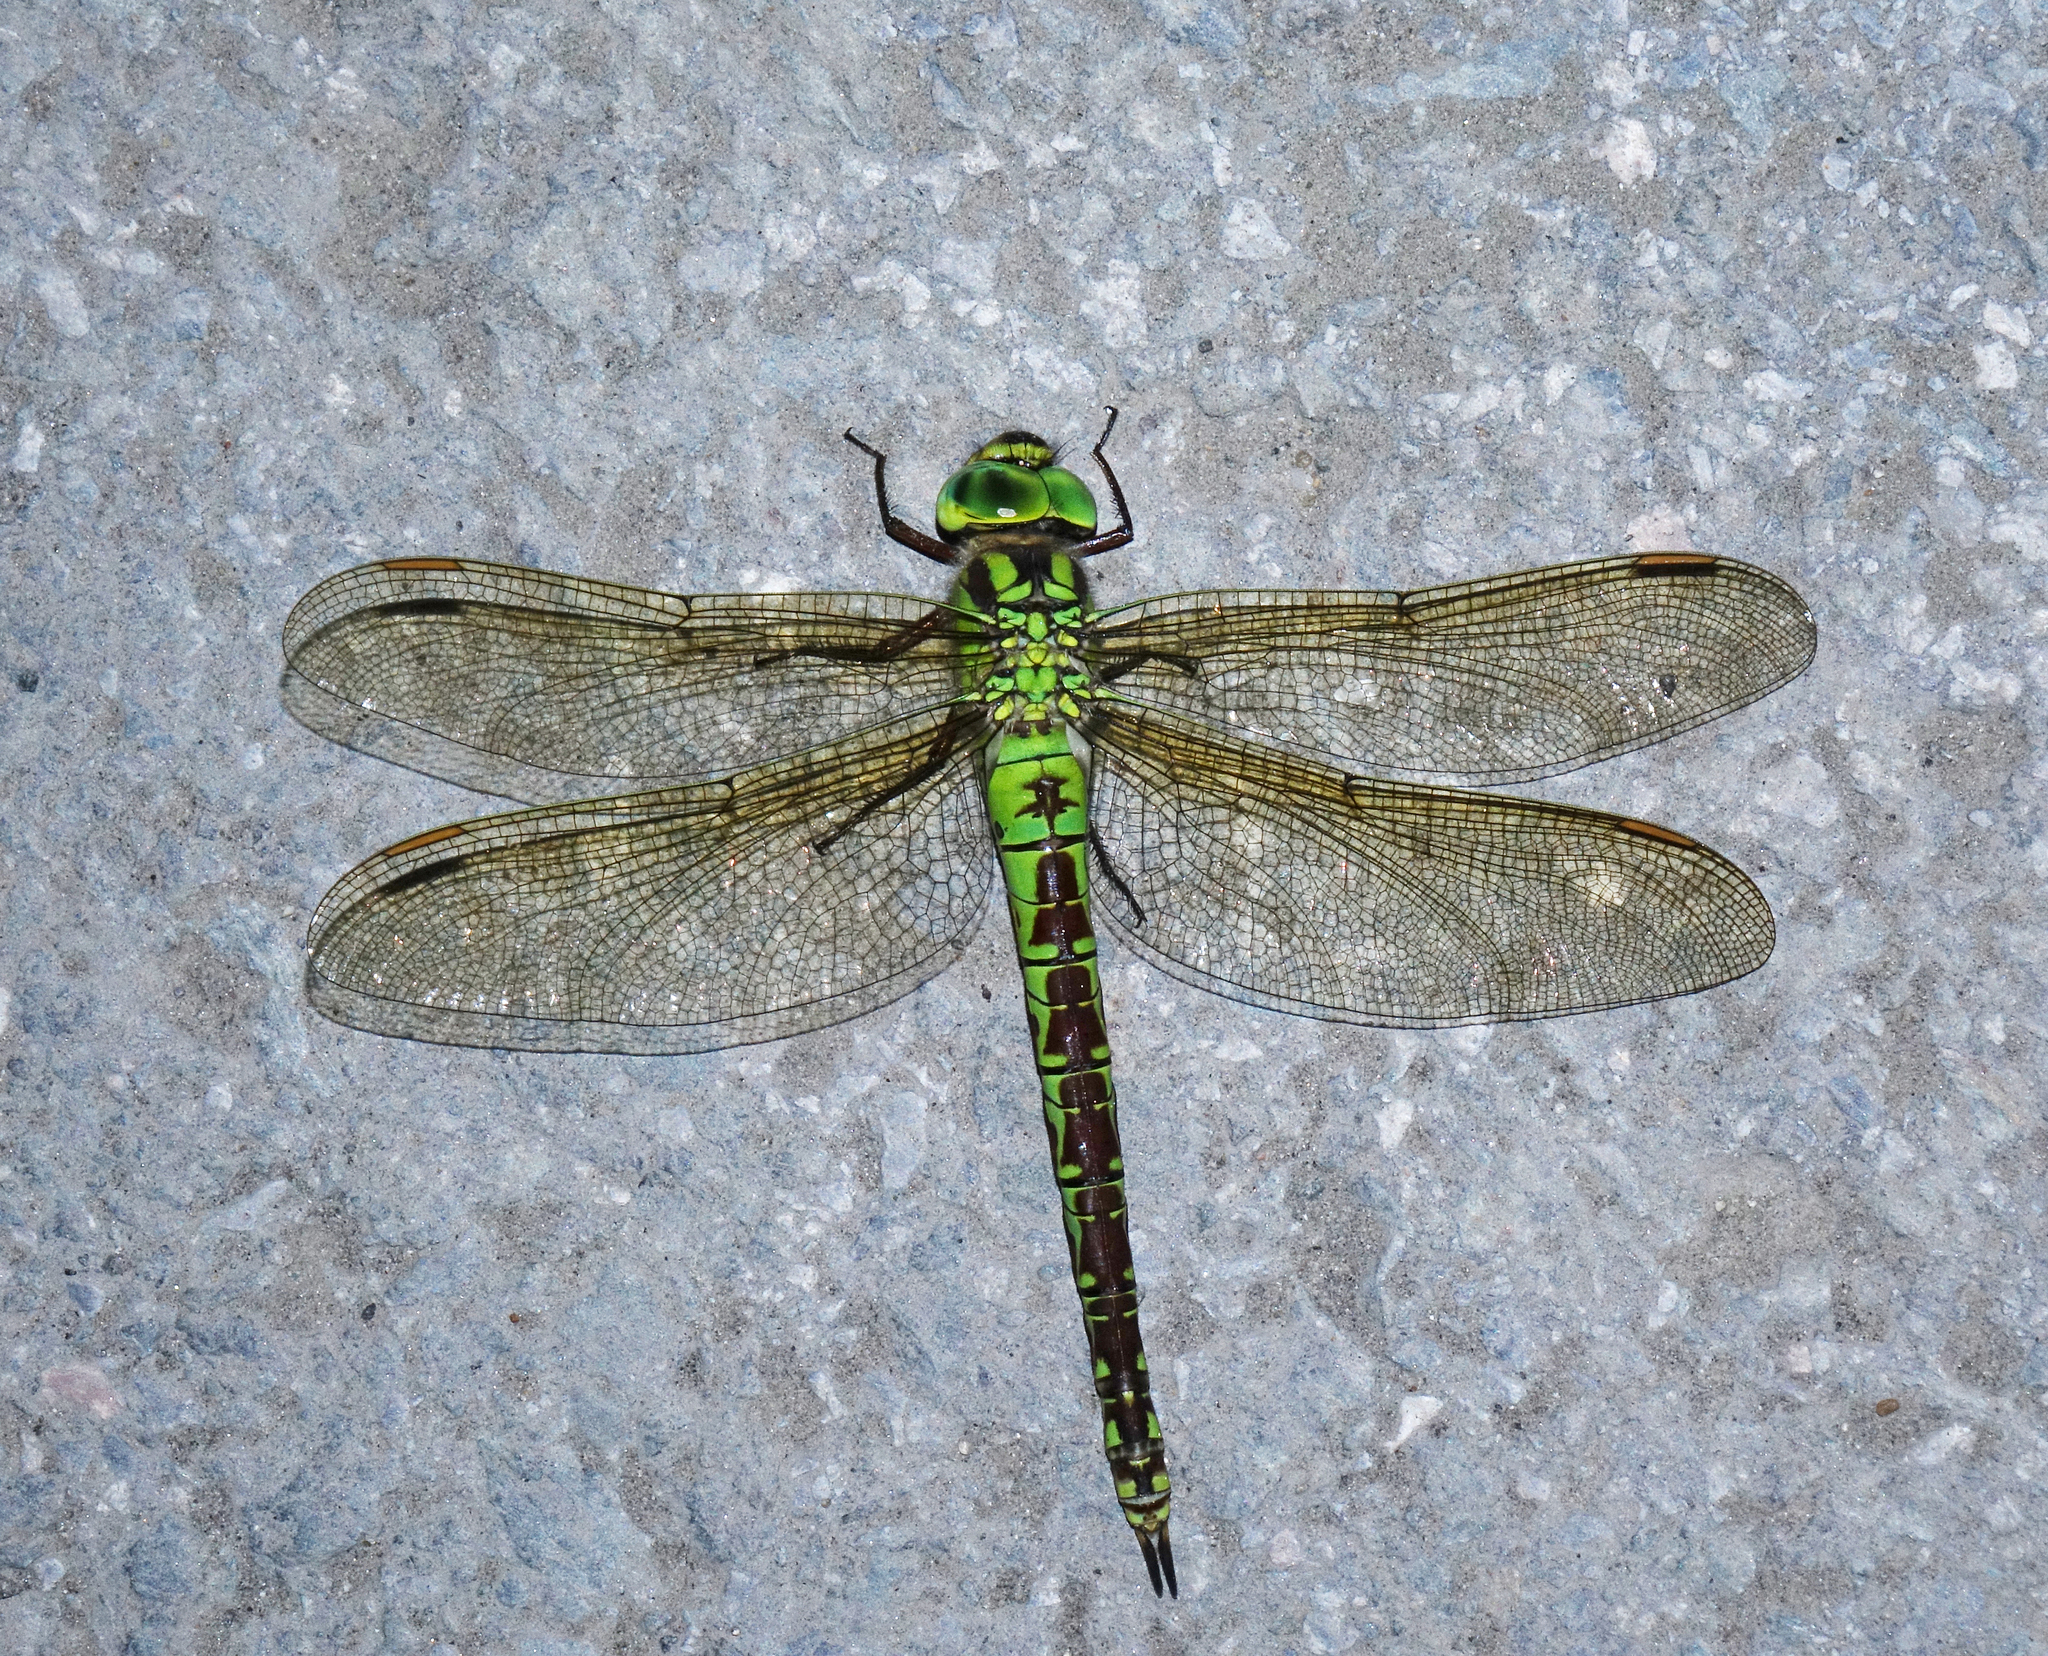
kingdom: Animalia
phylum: Arthropoda
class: Insecta
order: Odonata
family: Aeshnidae
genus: Aeshna
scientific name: Aeshna viridis
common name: Green hawker
